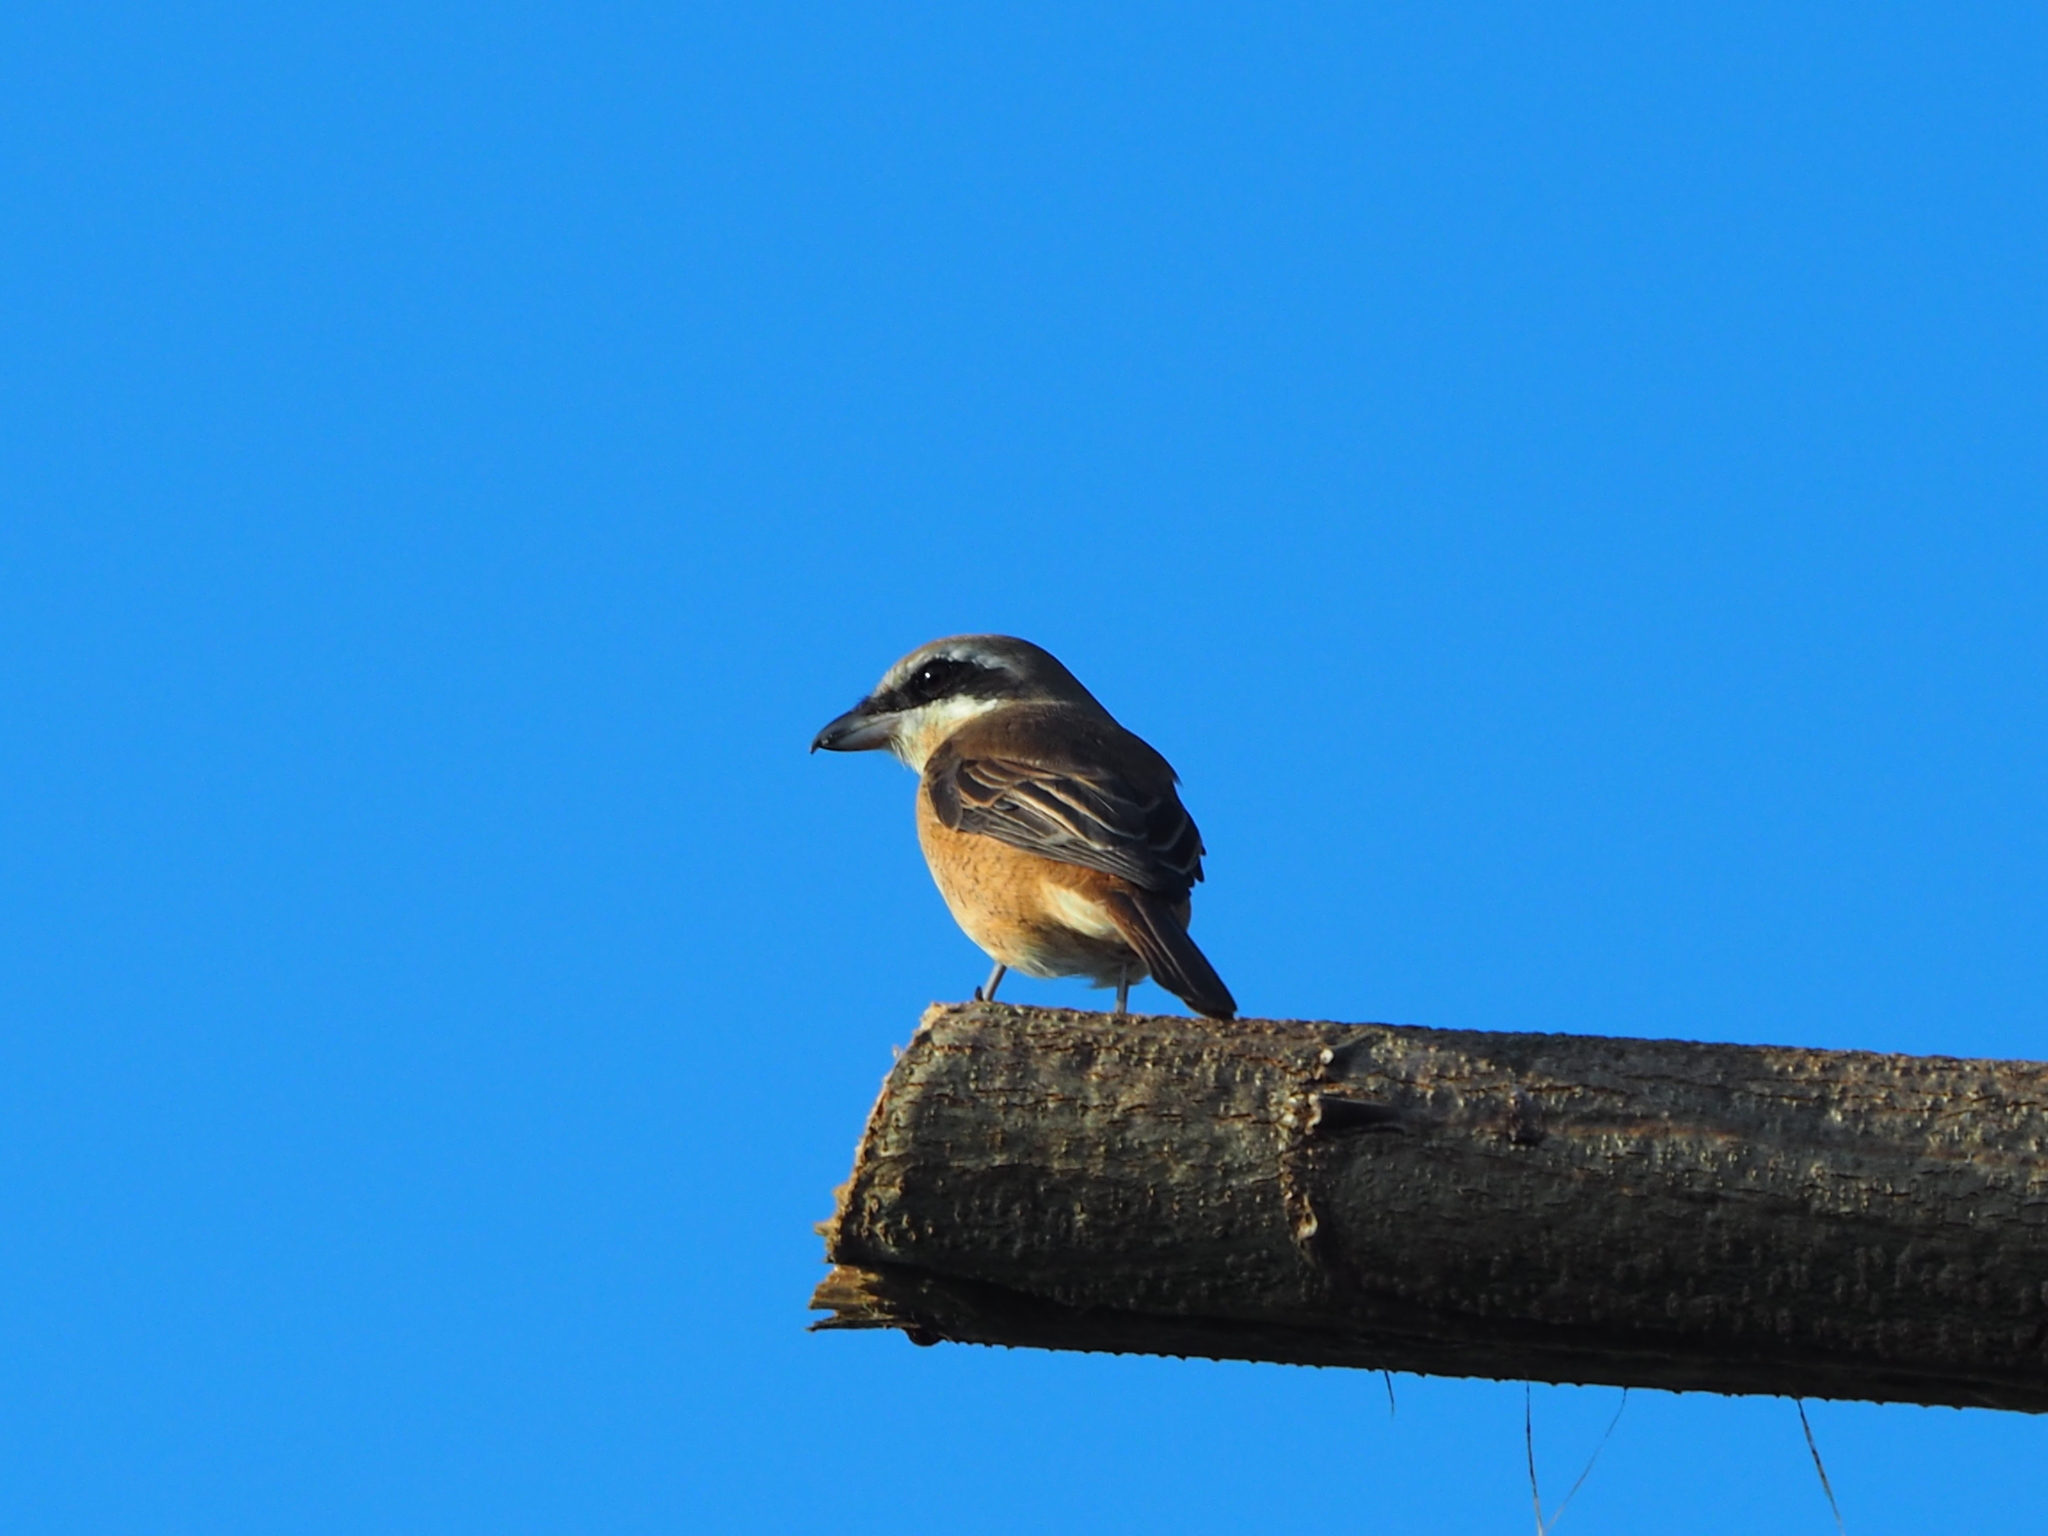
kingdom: Animalia
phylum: Chordata
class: Aves
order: Passeriformes
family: Laniidae
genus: Lanius
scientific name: Lanius cristatus
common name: Brown shrike
